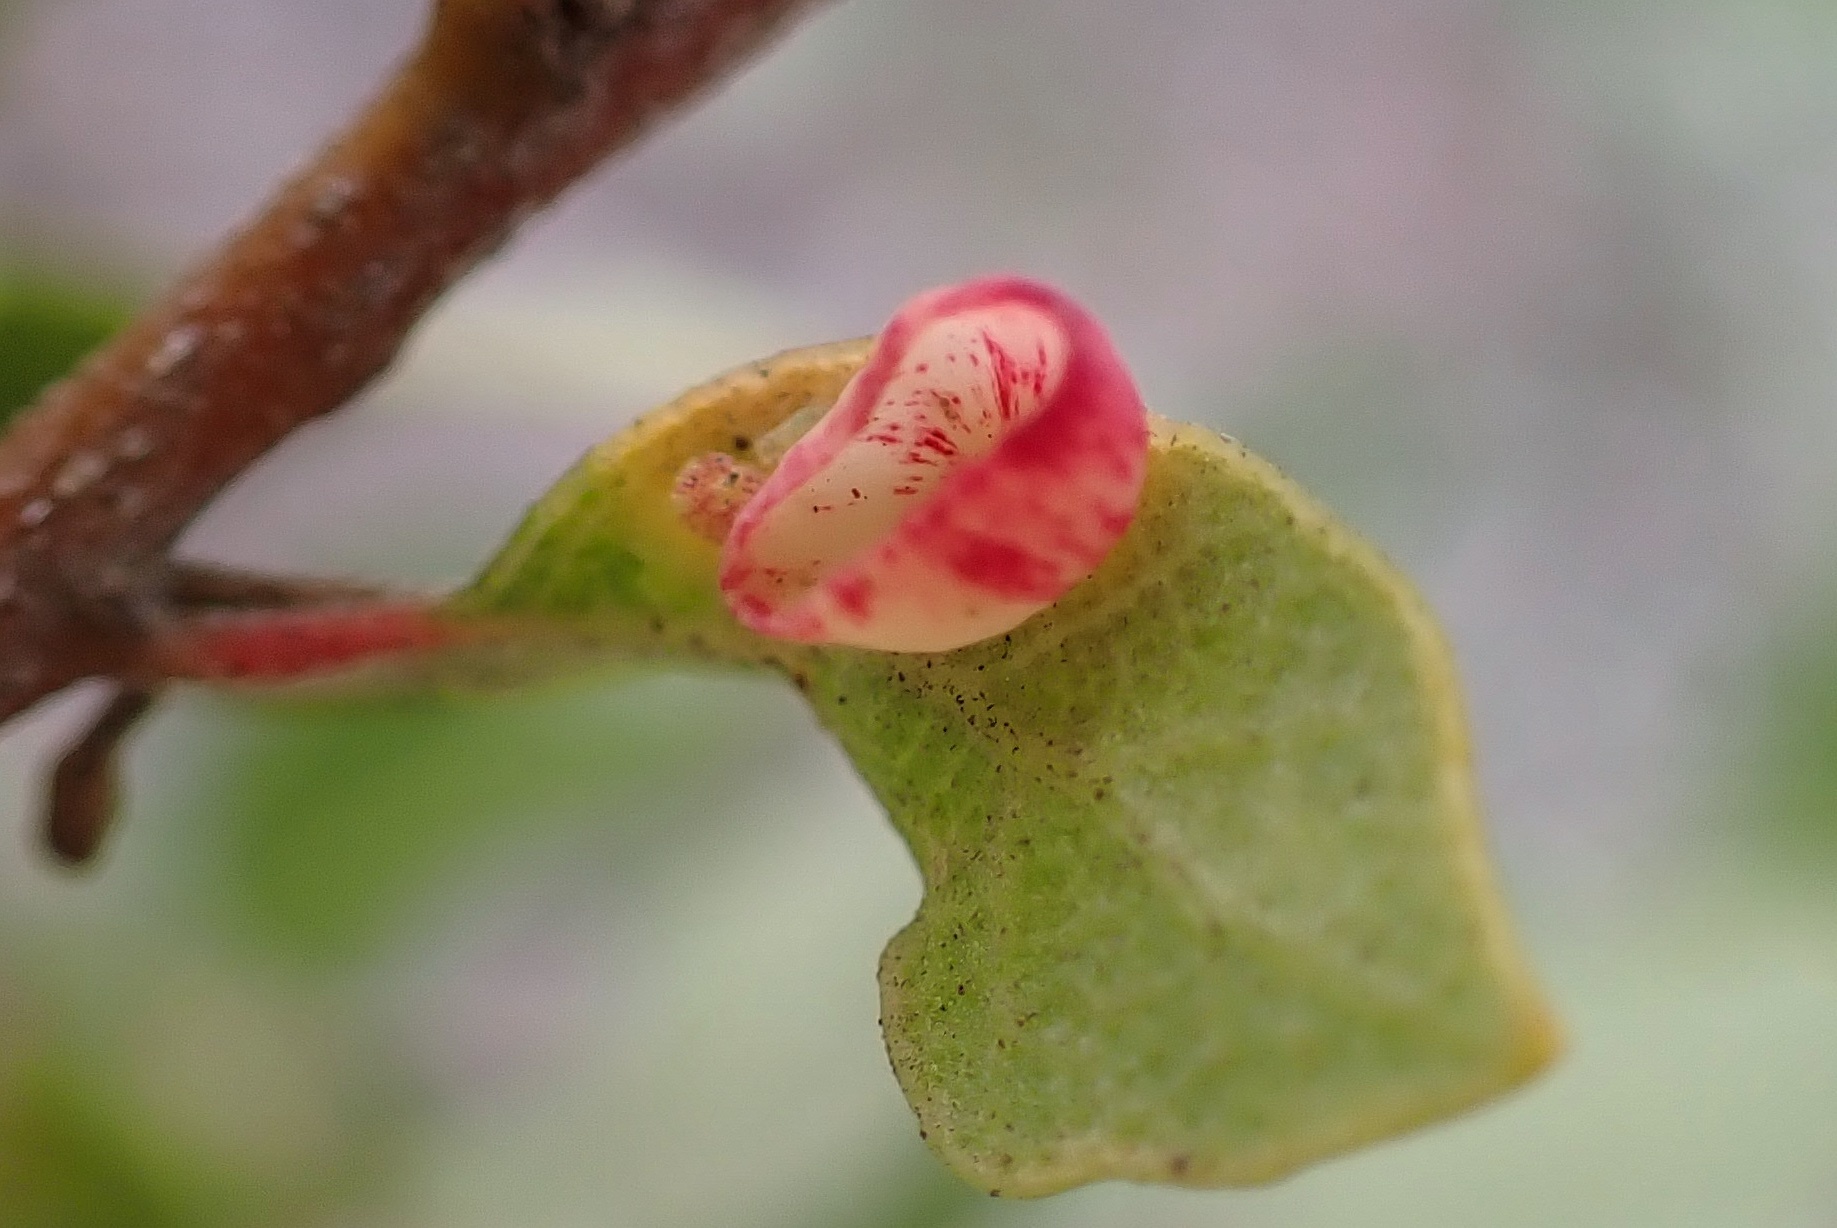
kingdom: Animalia
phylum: Arthropoda
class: Insecta
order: Hymenoptera
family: Cynipidae
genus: Andricus
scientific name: Andricus
